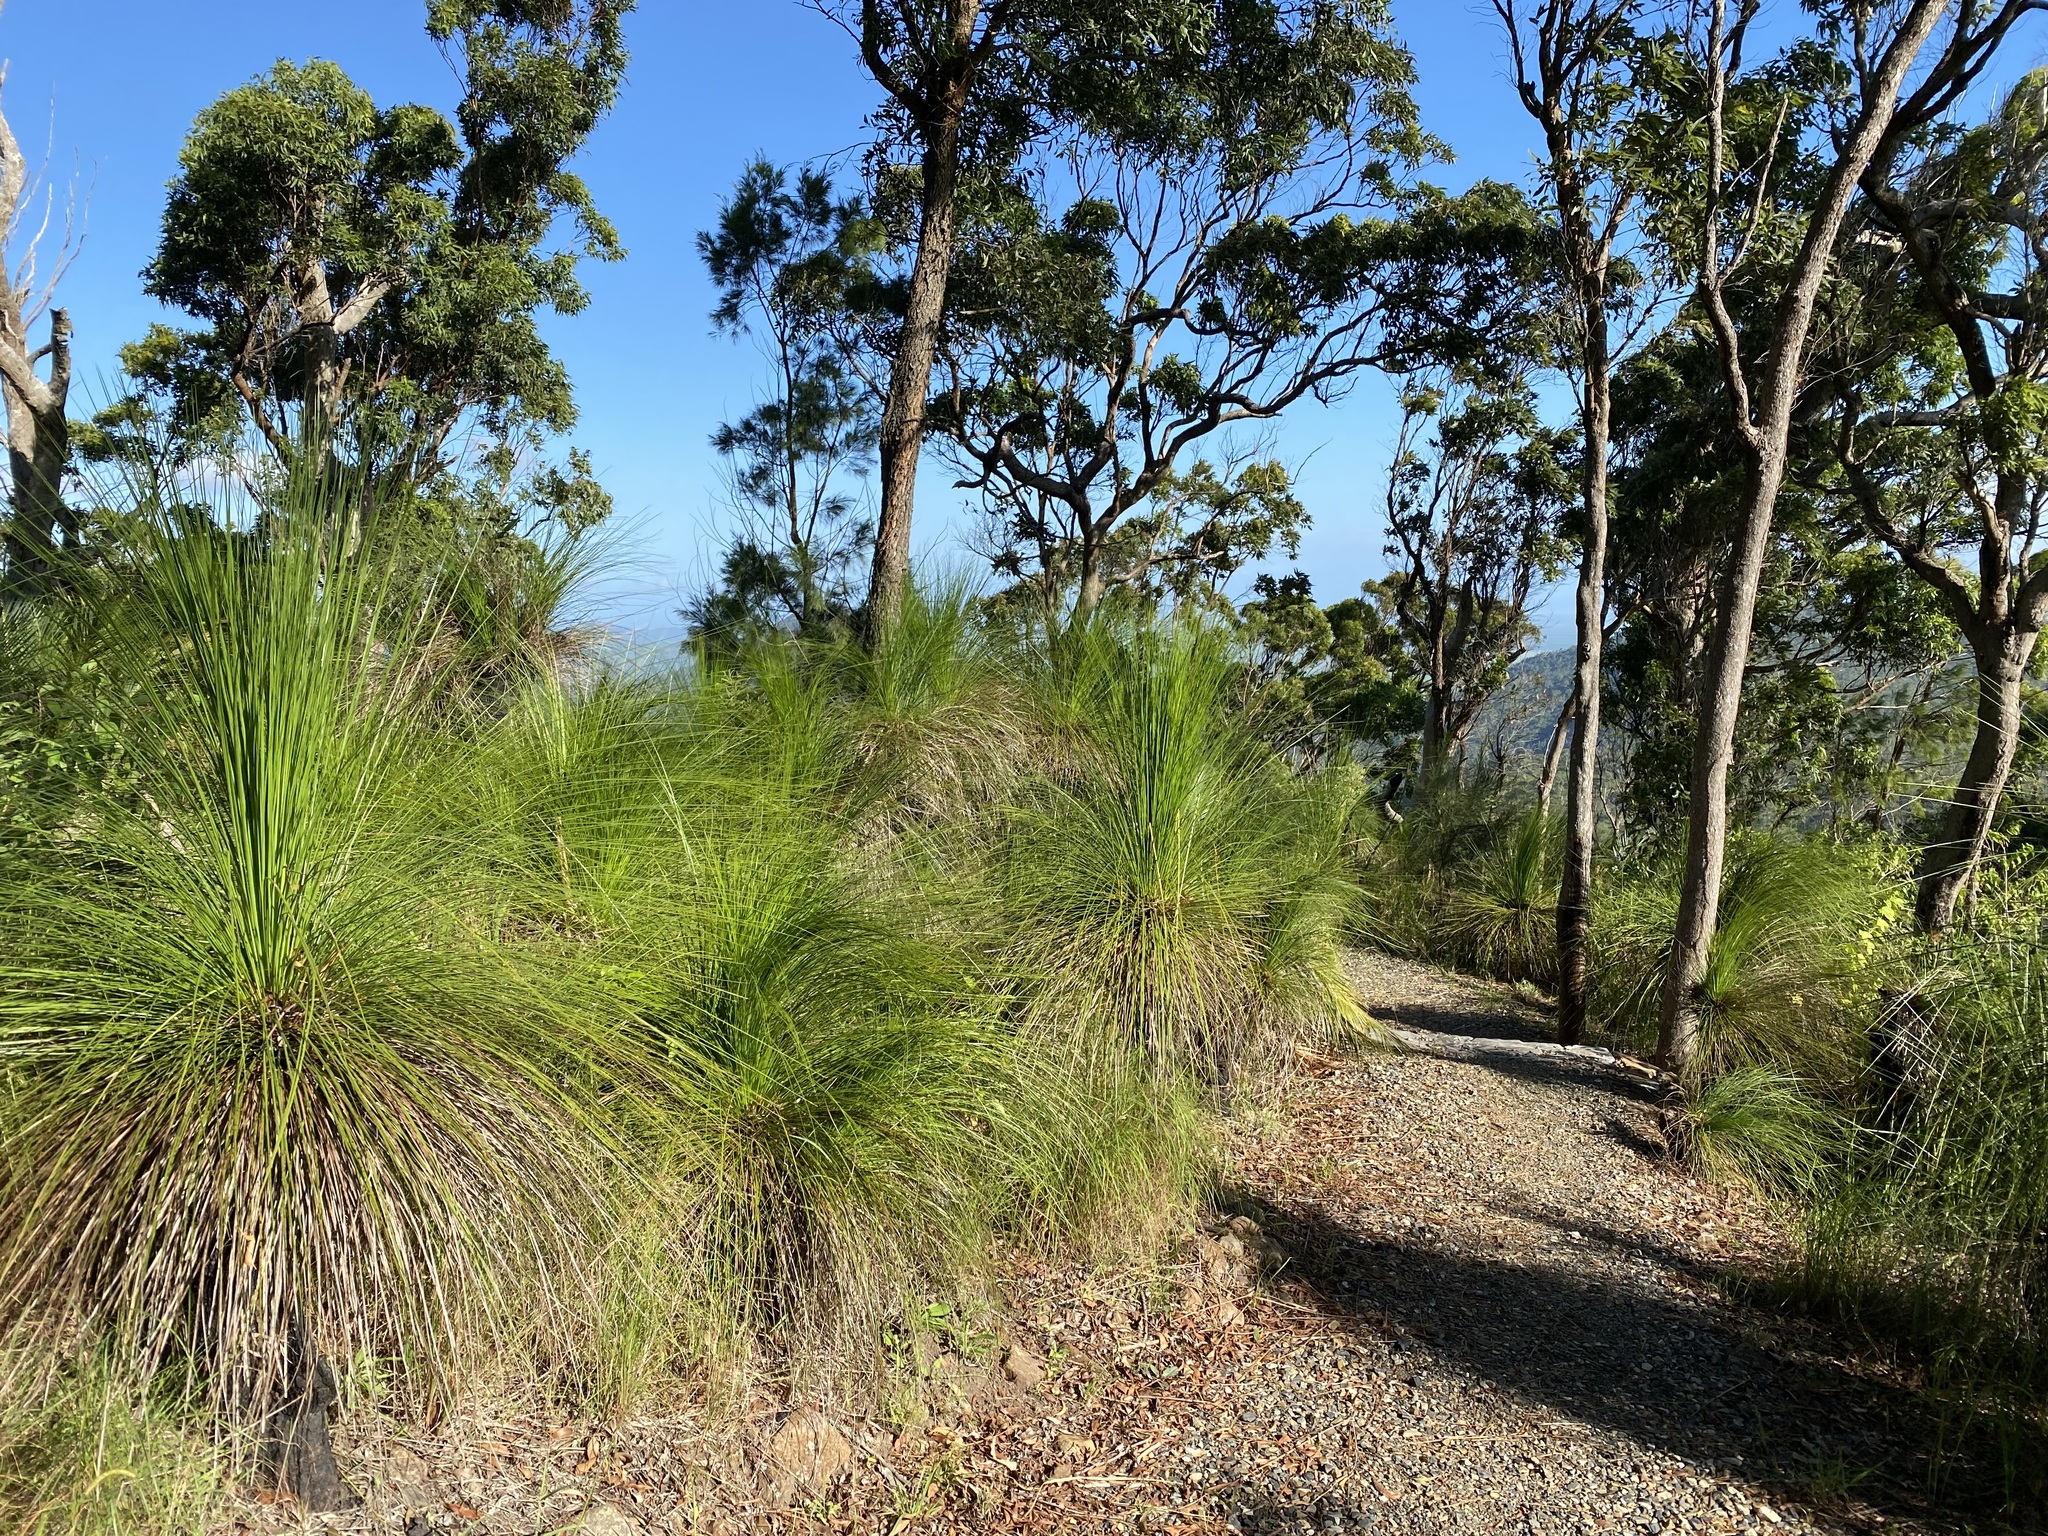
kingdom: Plantae
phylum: Tracheophyta
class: Liliopsida
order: Asparagales
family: Asphodelaceae
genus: Xanthorrhoea
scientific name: Xanthorrhoea latifolia
